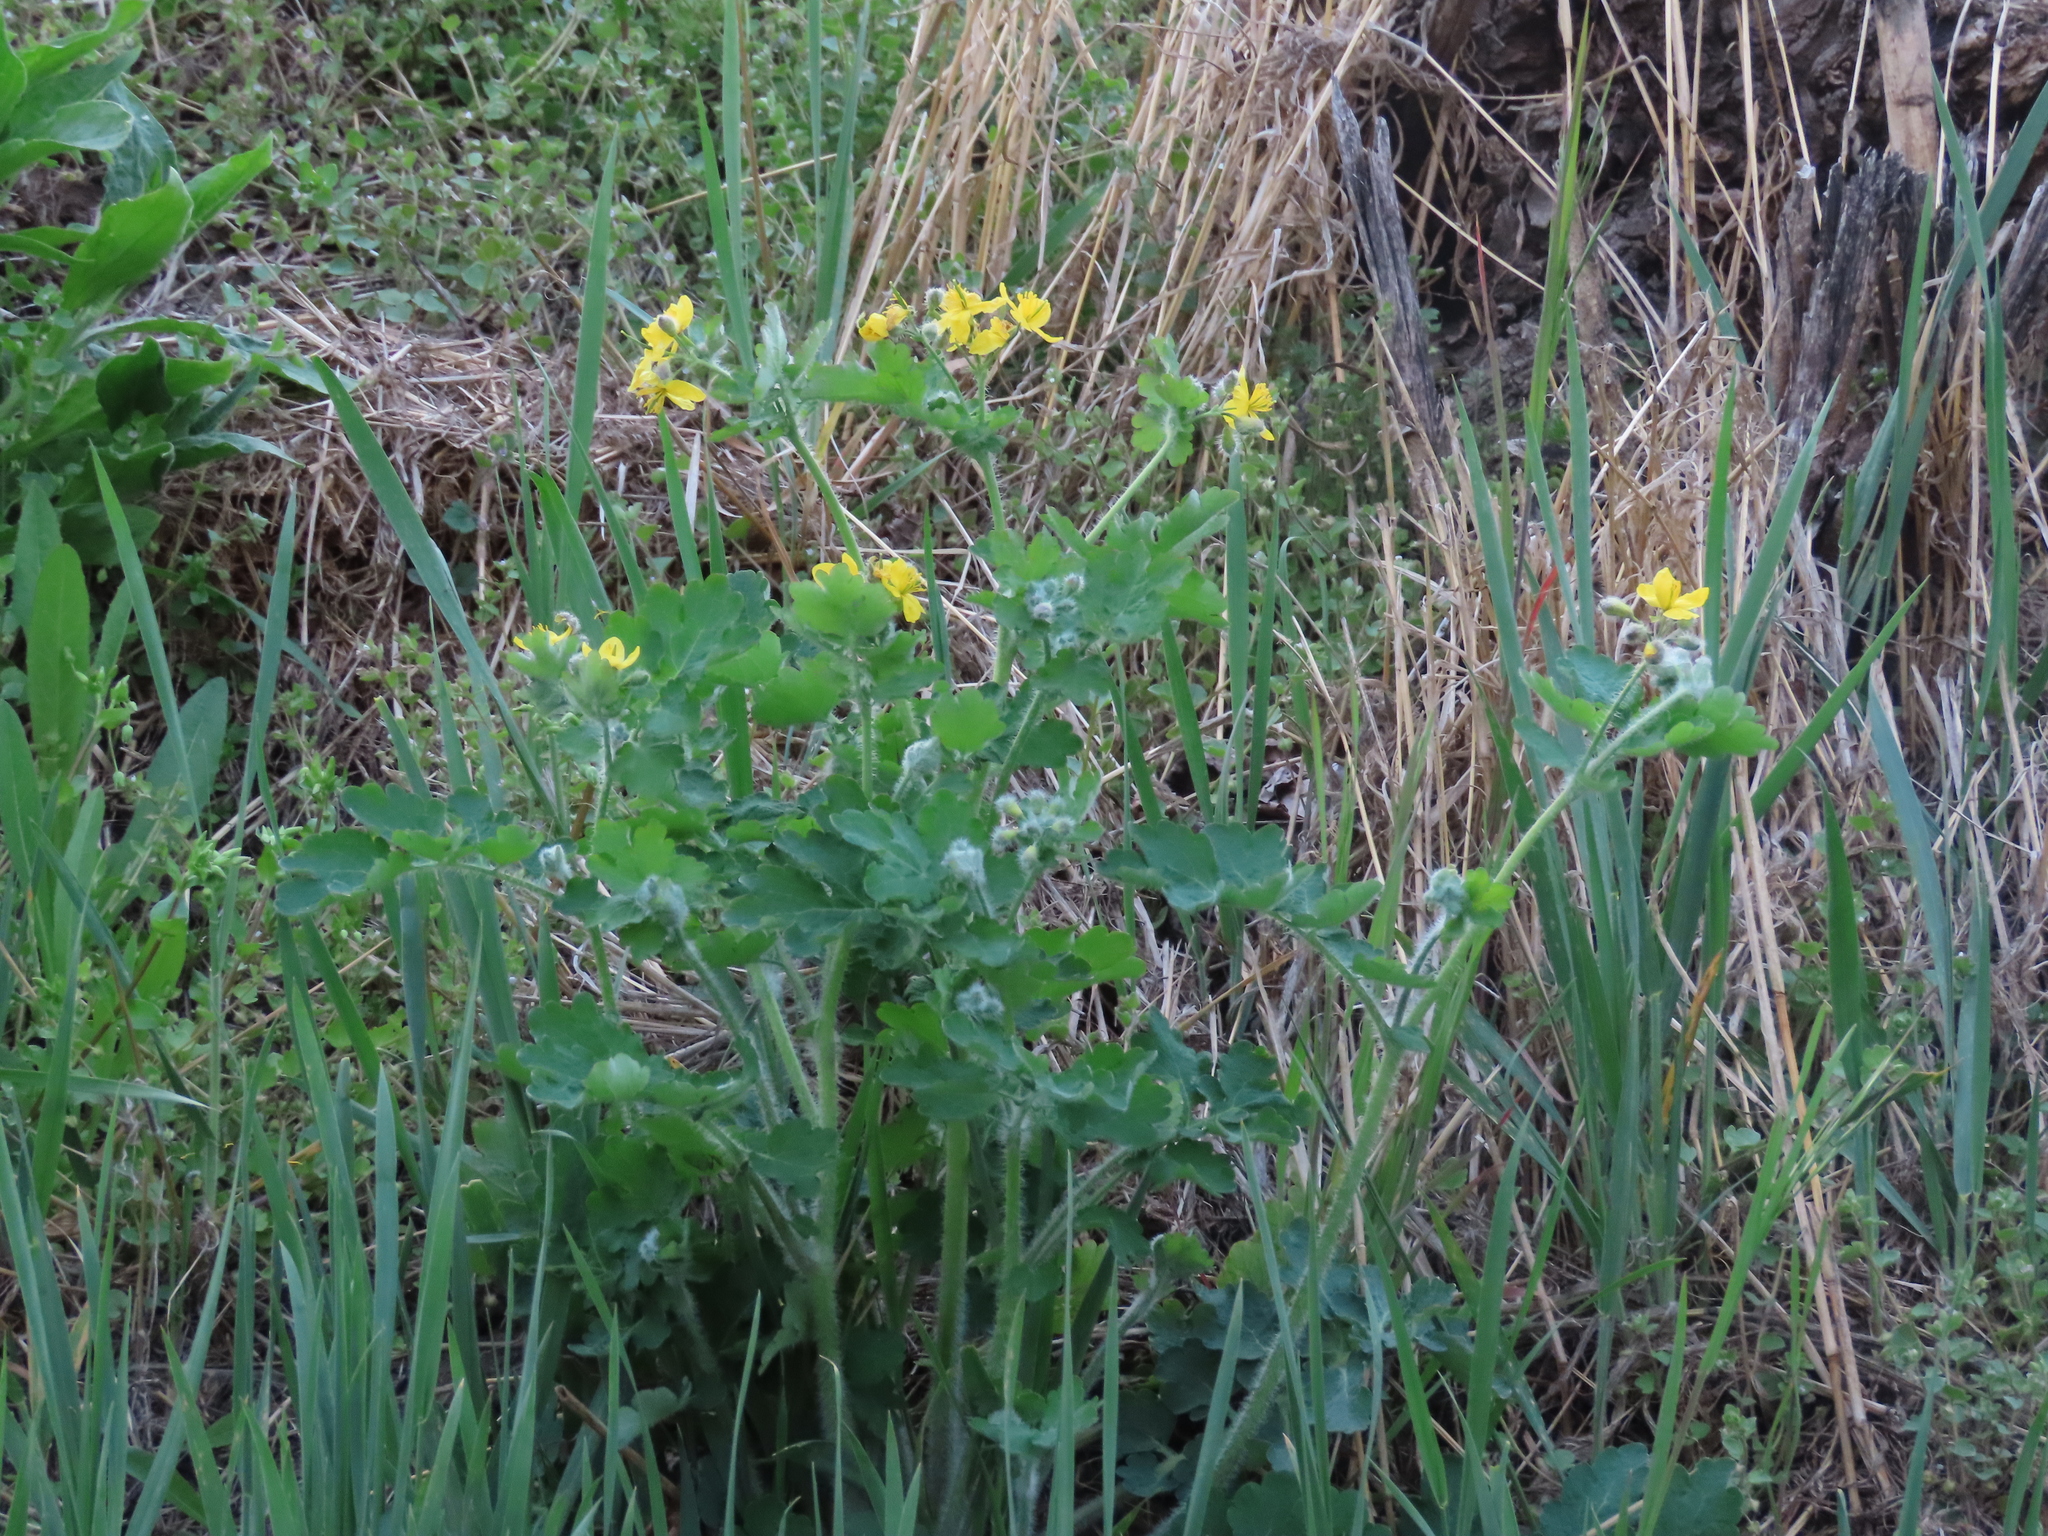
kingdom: Plantae
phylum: Tracheophyta
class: Magnoliopsida
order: Ranunculales
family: Papaveraceae
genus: Chelidonium
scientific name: Chelidonium majus
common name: Greater celandine
